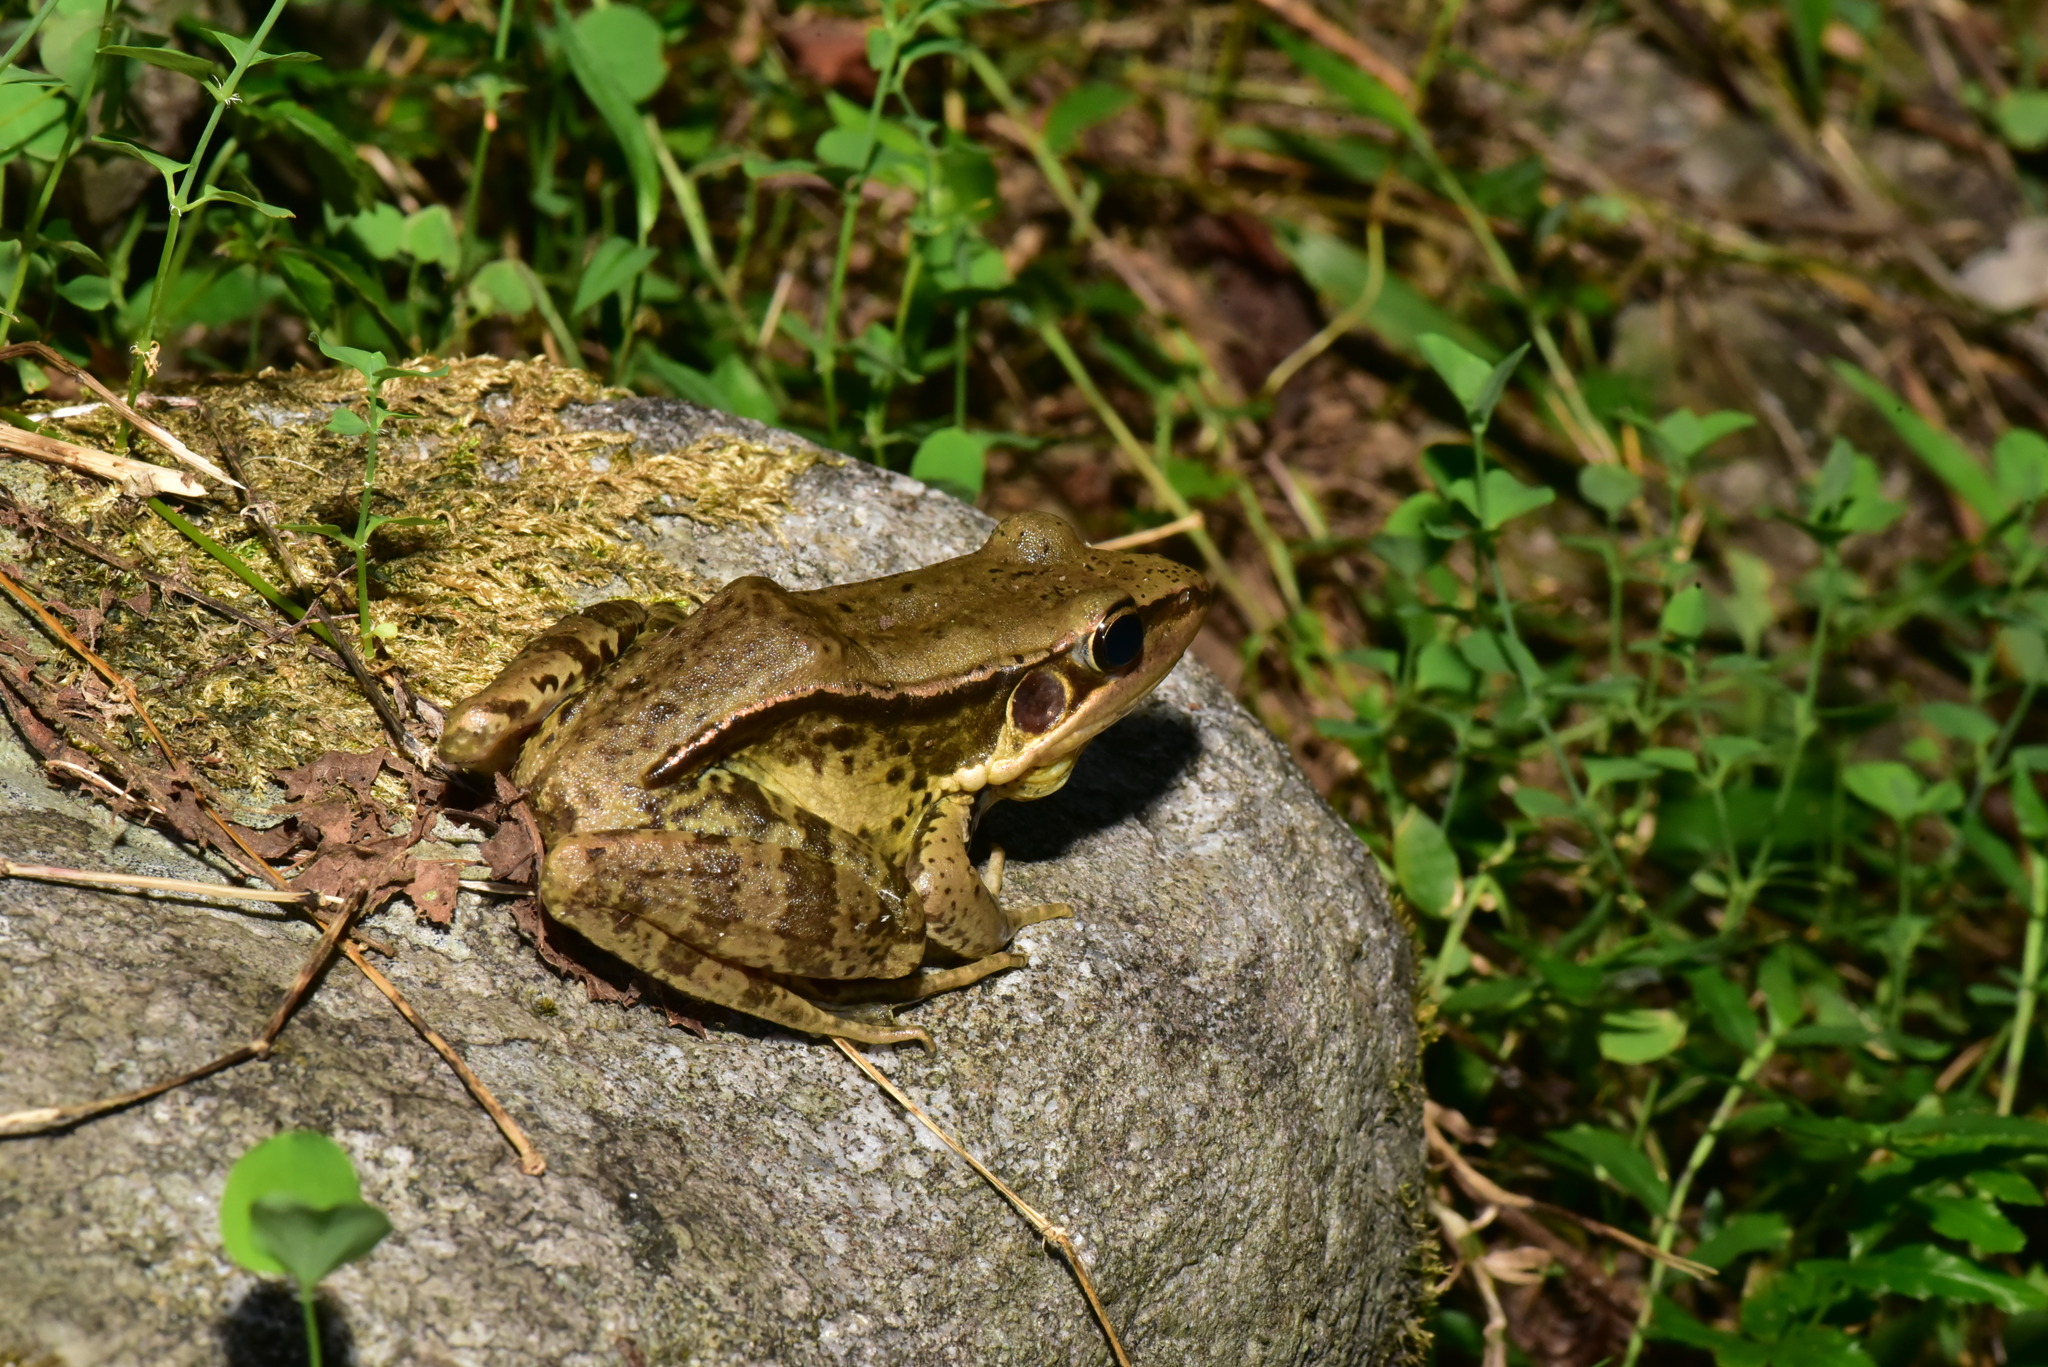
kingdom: Animalia
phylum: Chordata
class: Amphibia
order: Anura
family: Ranidae
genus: Sylvirana
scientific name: Sylvirana guentheri
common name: Guenther's amoy frog
